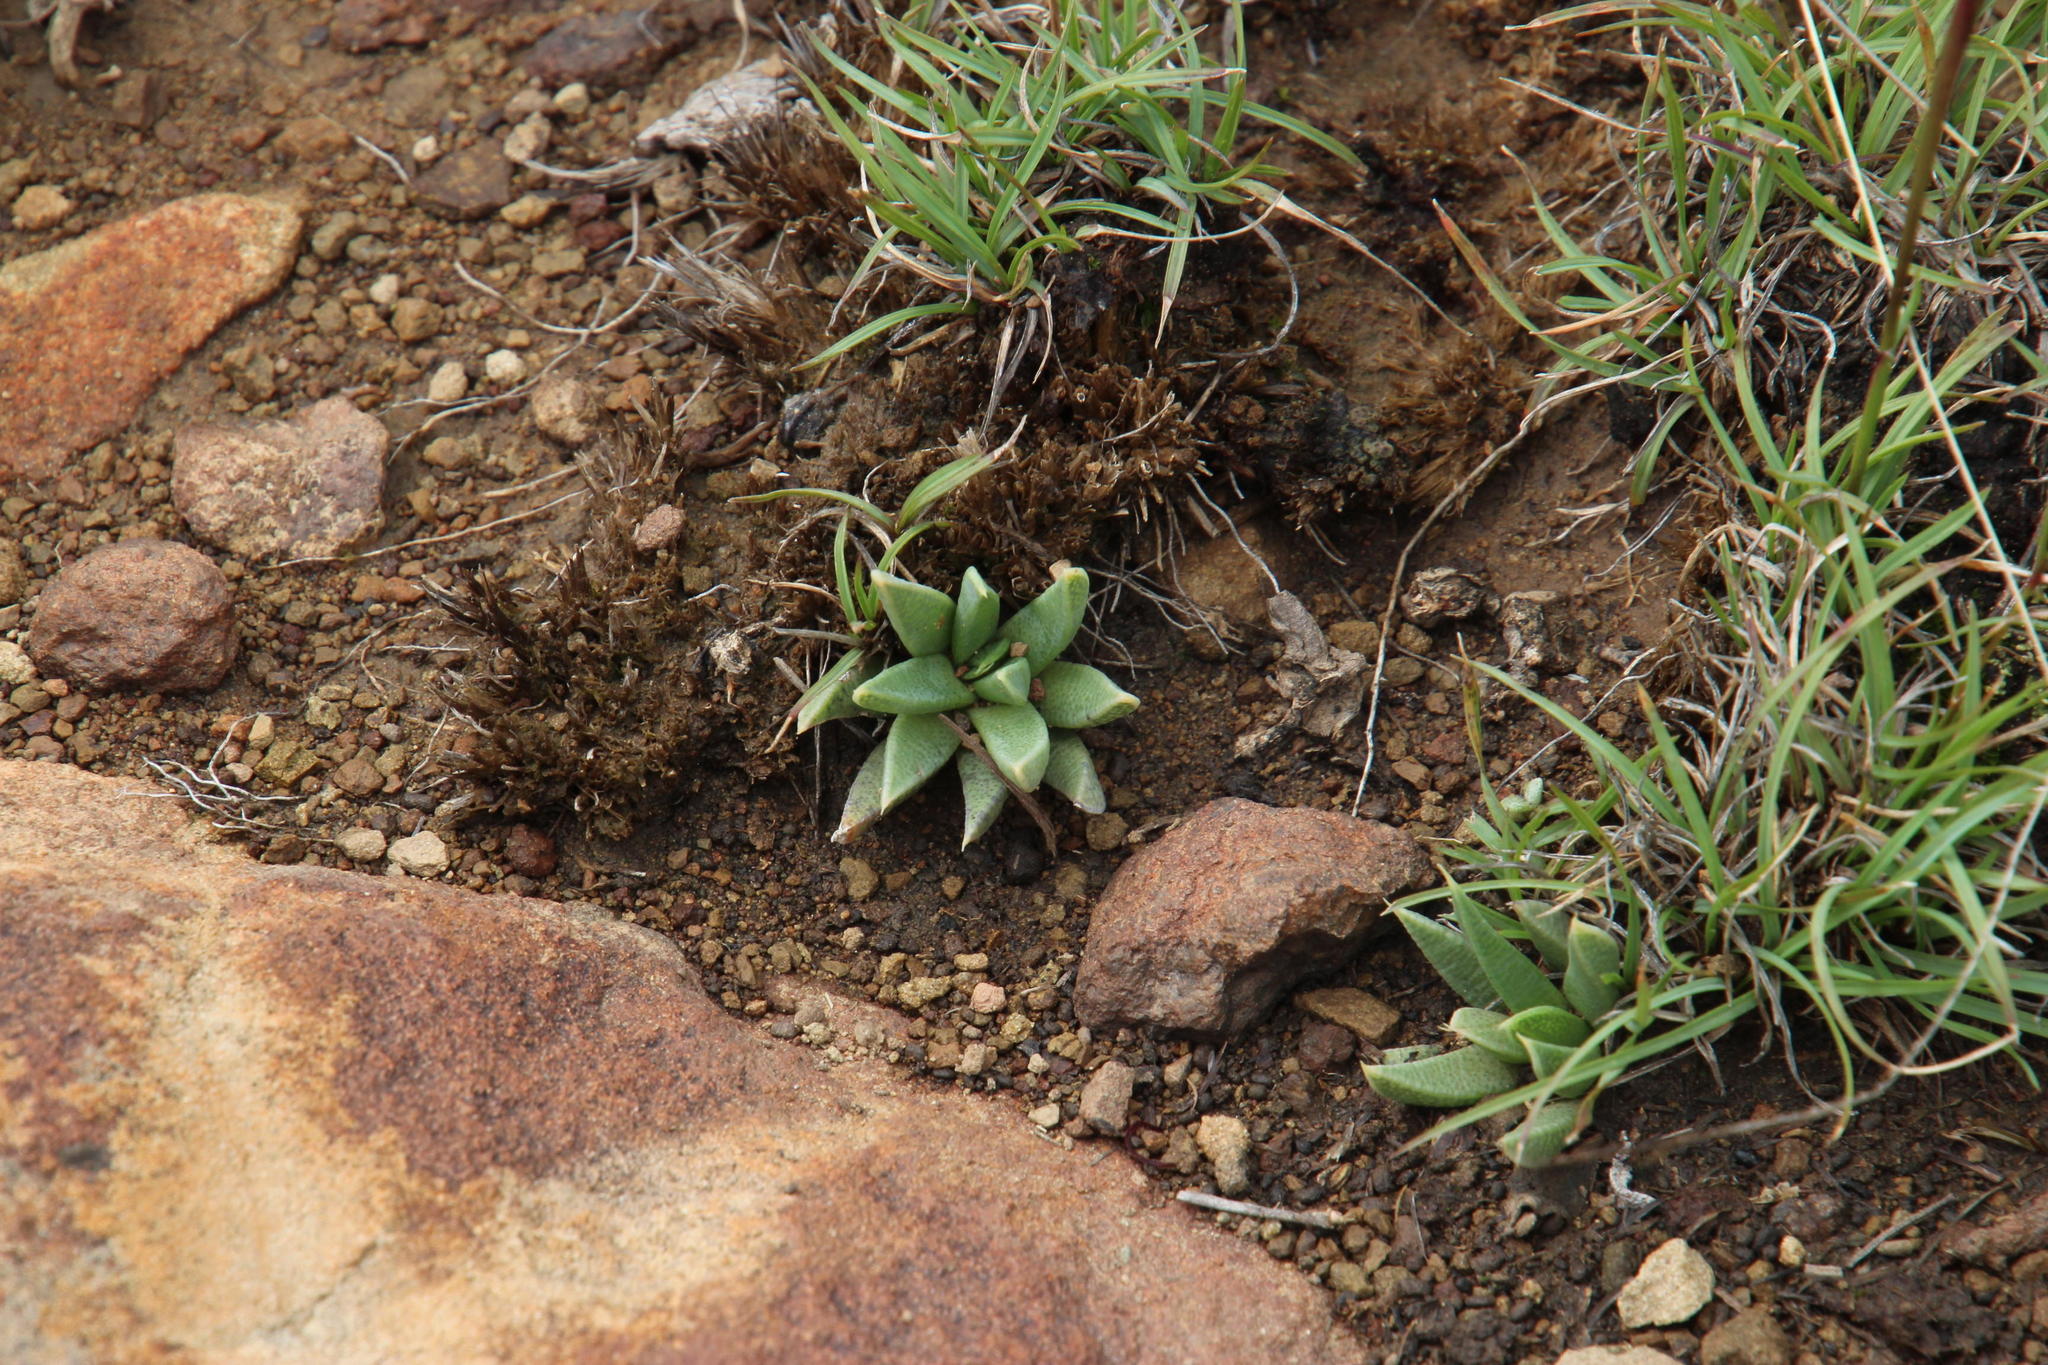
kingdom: Plantae
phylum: Tracheophyta
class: Magnoliopsida
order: Caryophyllales
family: Aizoaceae
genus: Bergeranthus
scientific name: Bergeranthus nanus
